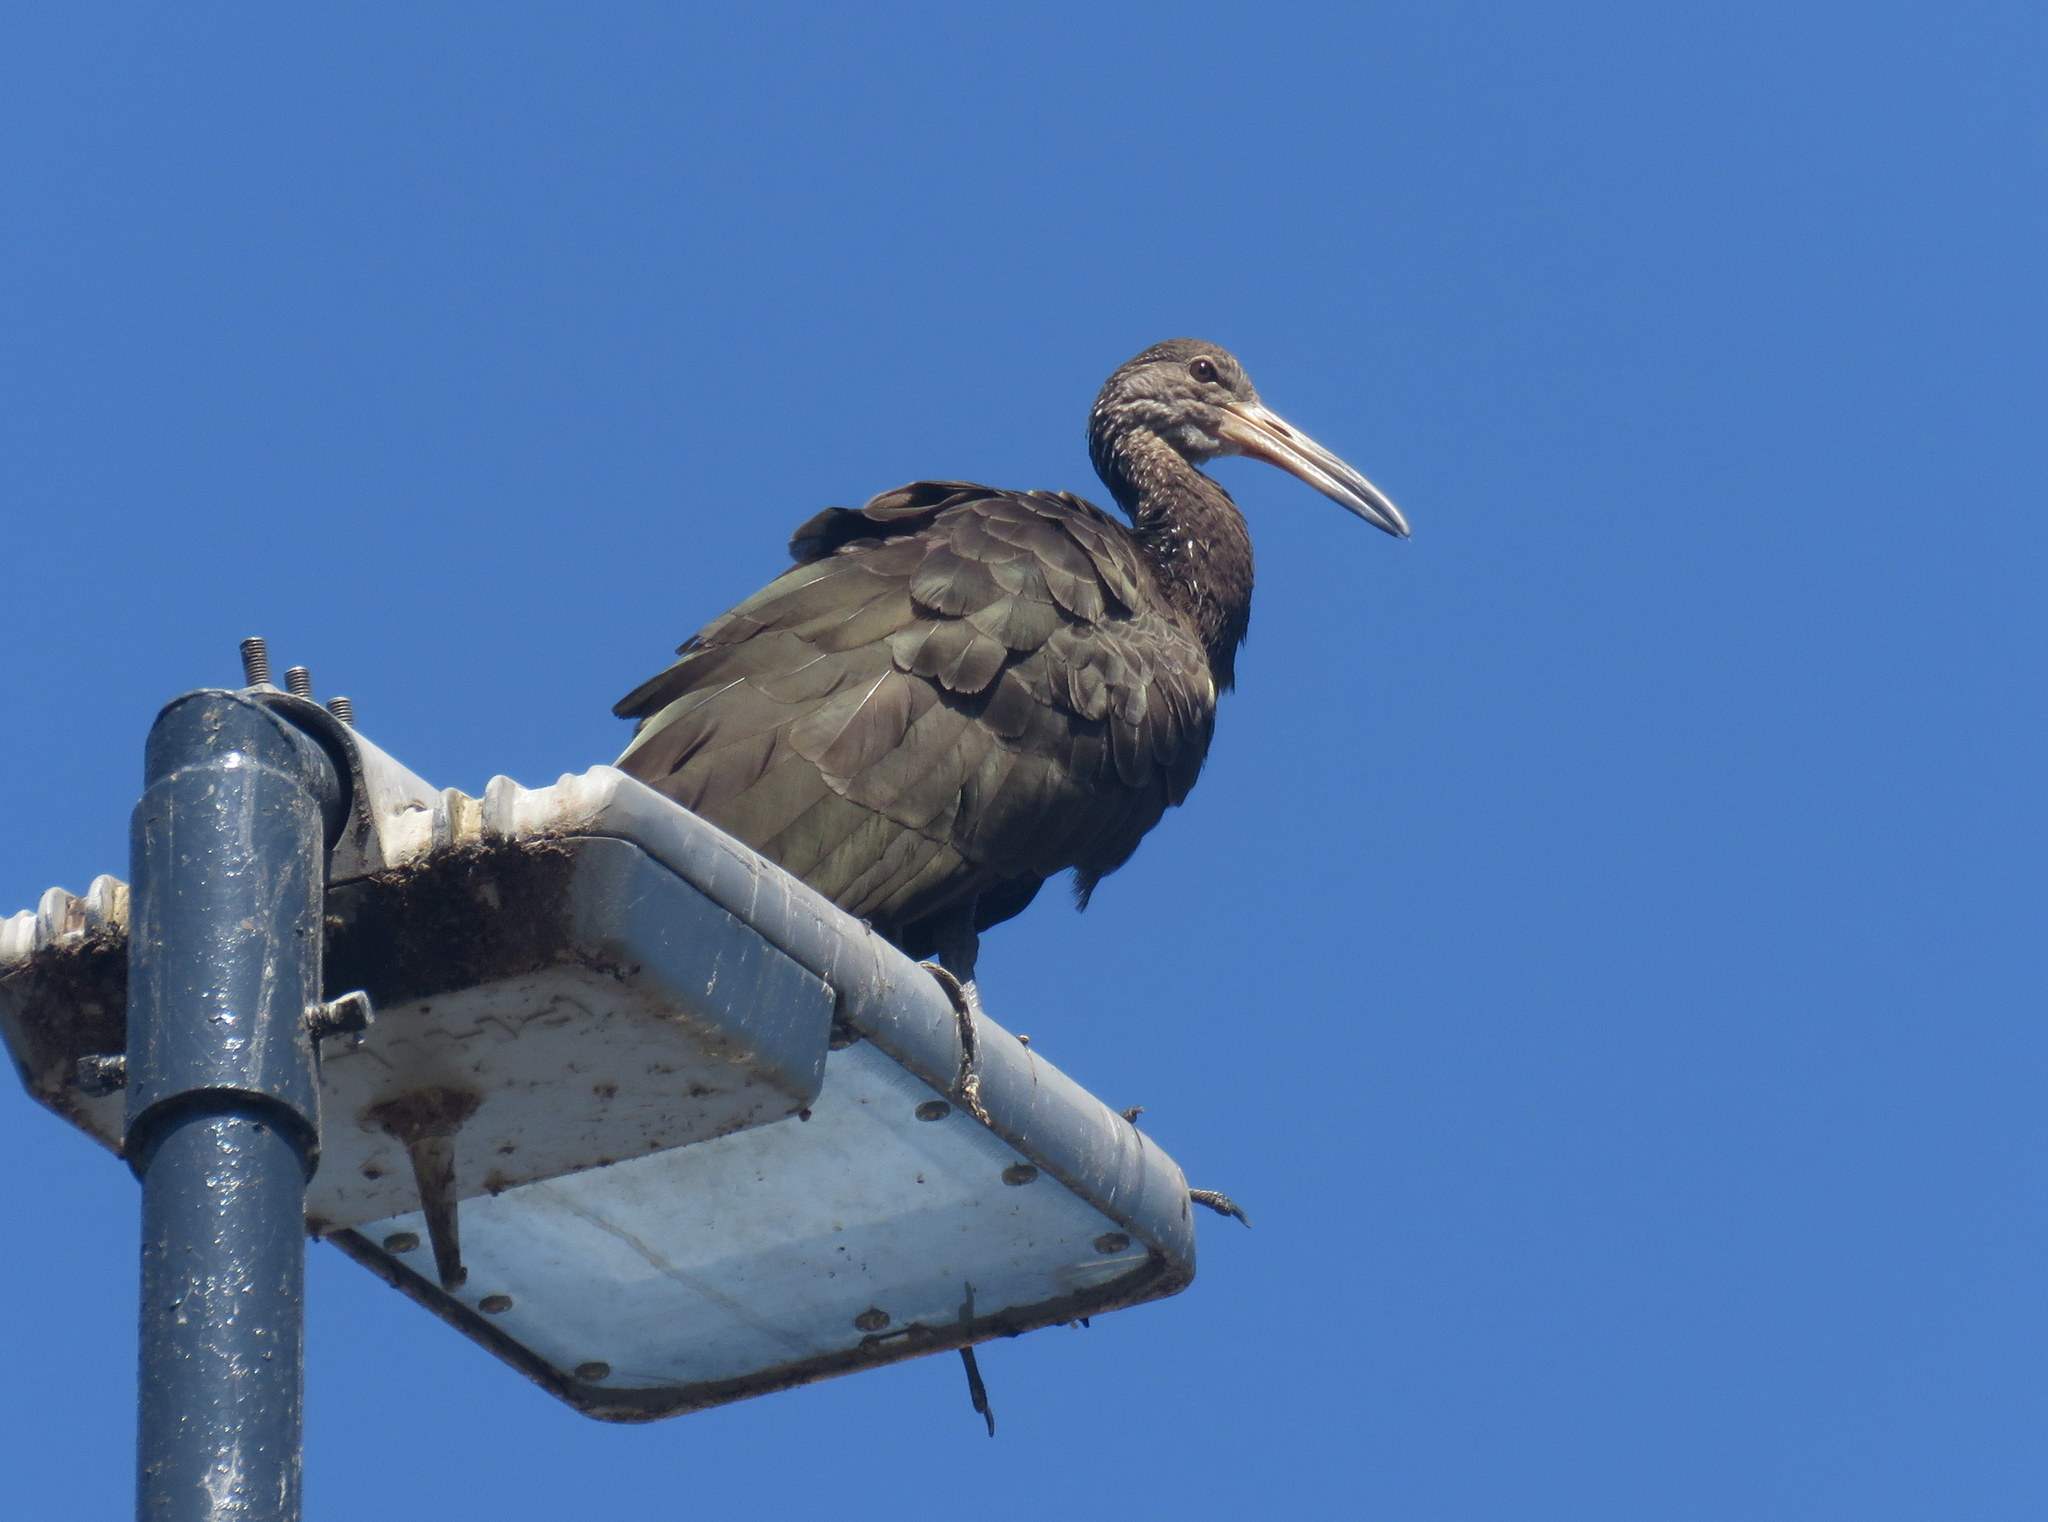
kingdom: Animalia
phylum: Chordata
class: Aves
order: Gruiformes
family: Aramidae
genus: Aramus
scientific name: Aramus guarauna
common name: Limpkin
